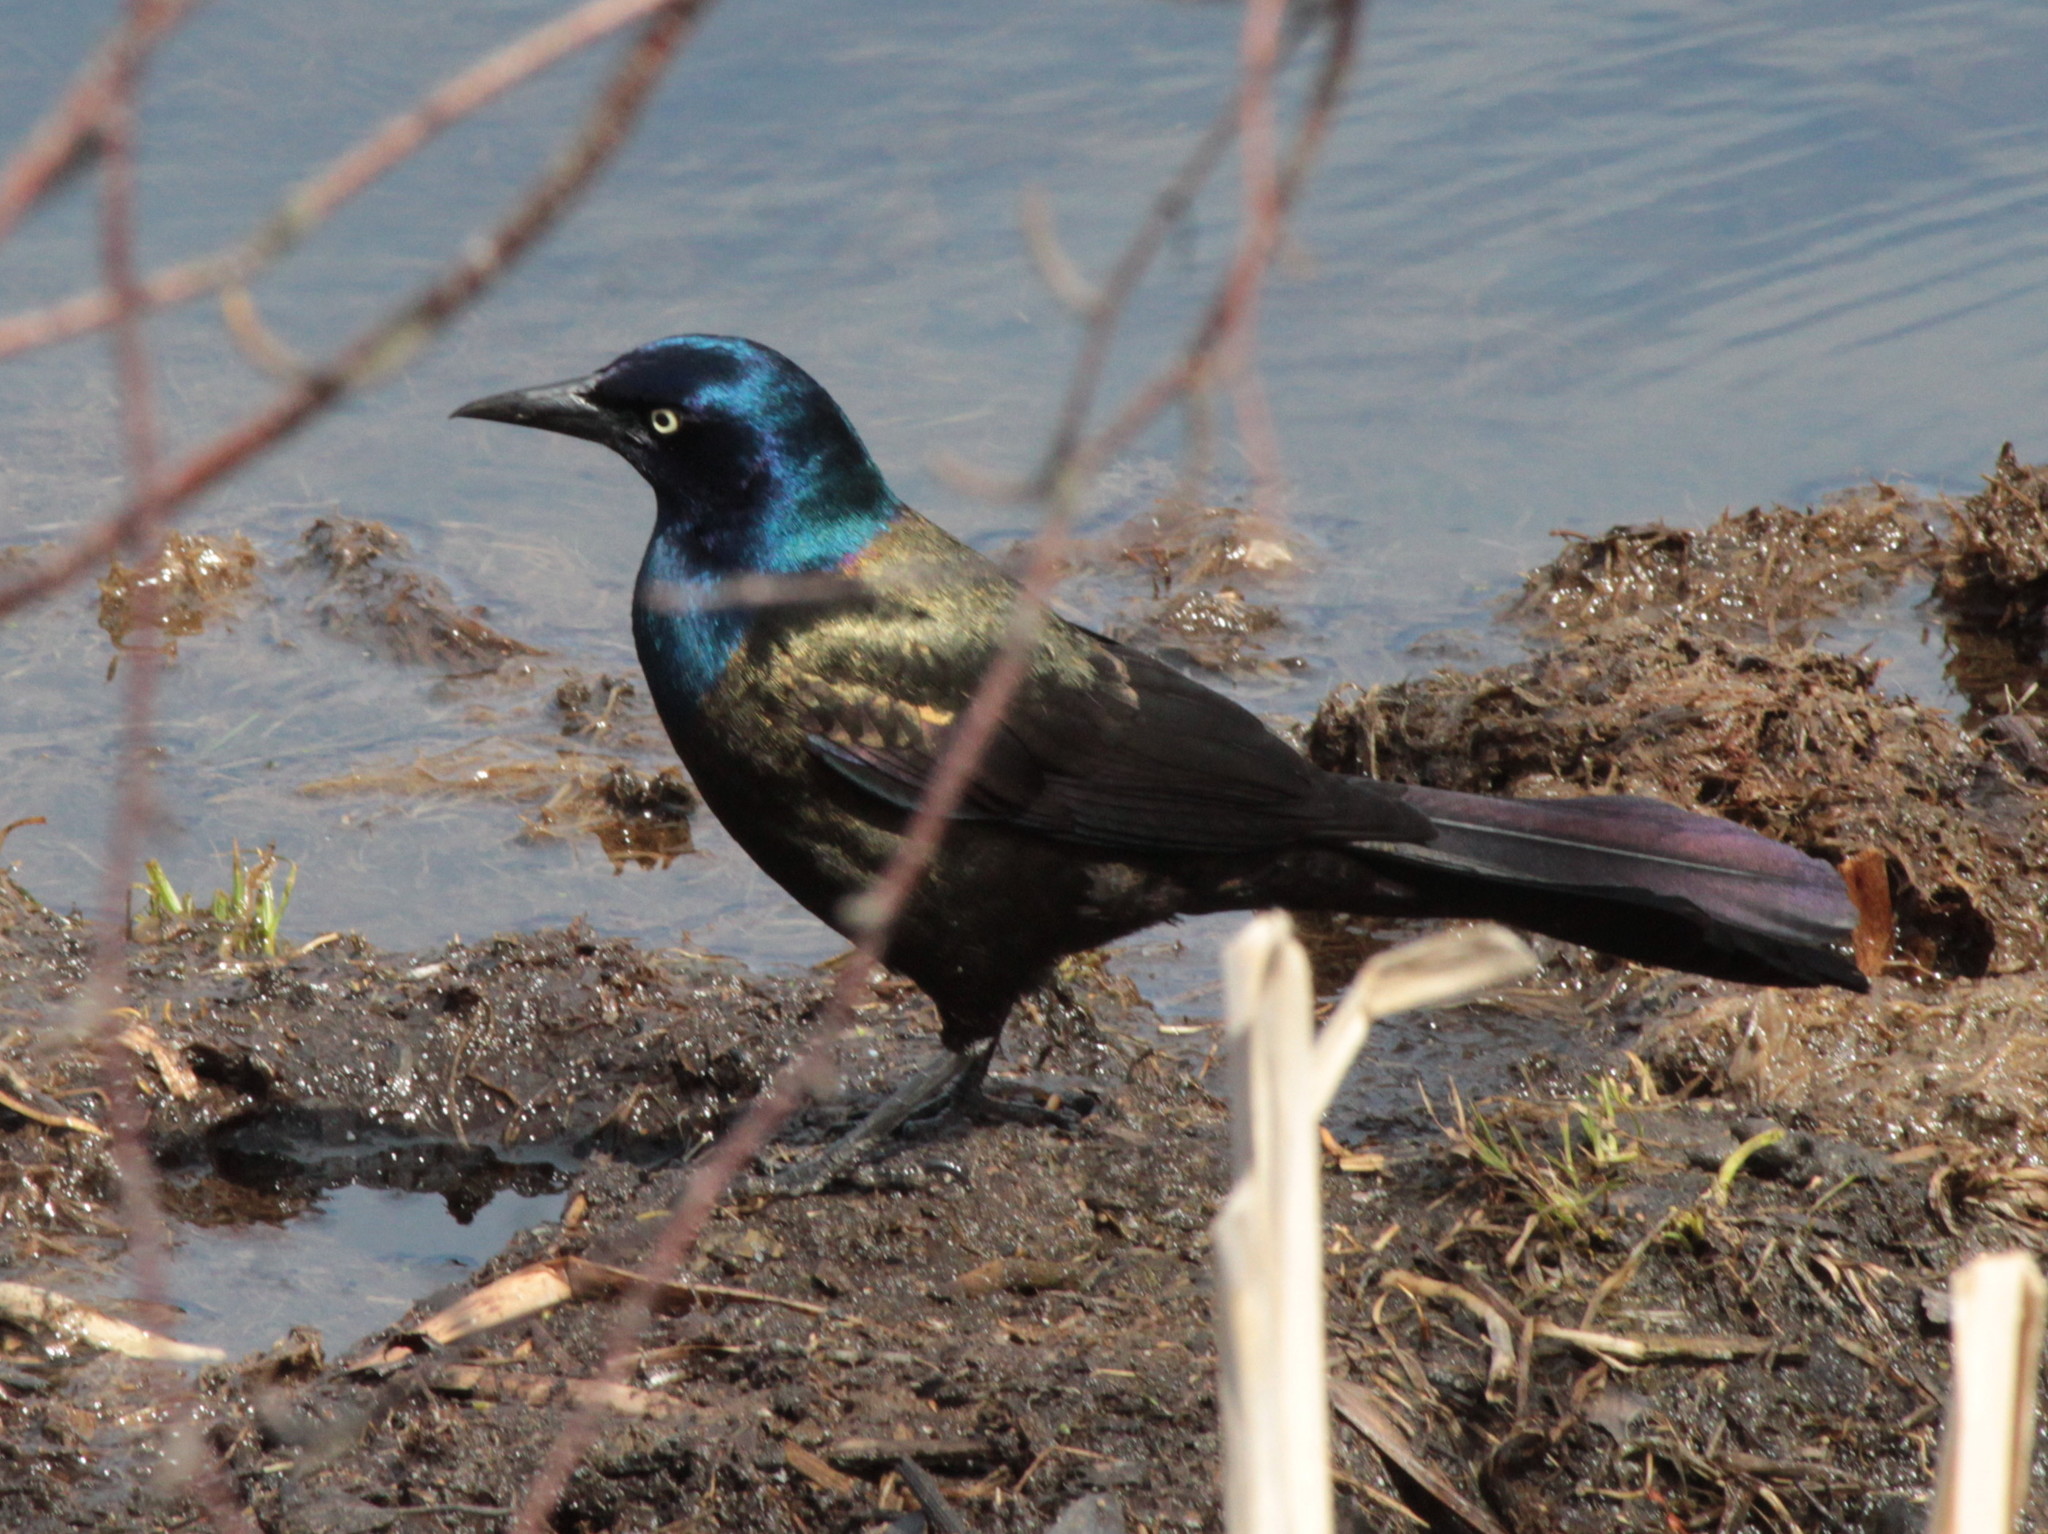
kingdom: Animalia
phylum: Chordata
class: Aves
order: Passeriformes
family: Icteridae
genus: Quiscalus
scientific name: Quiscalus quiscula
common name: Common grackle
